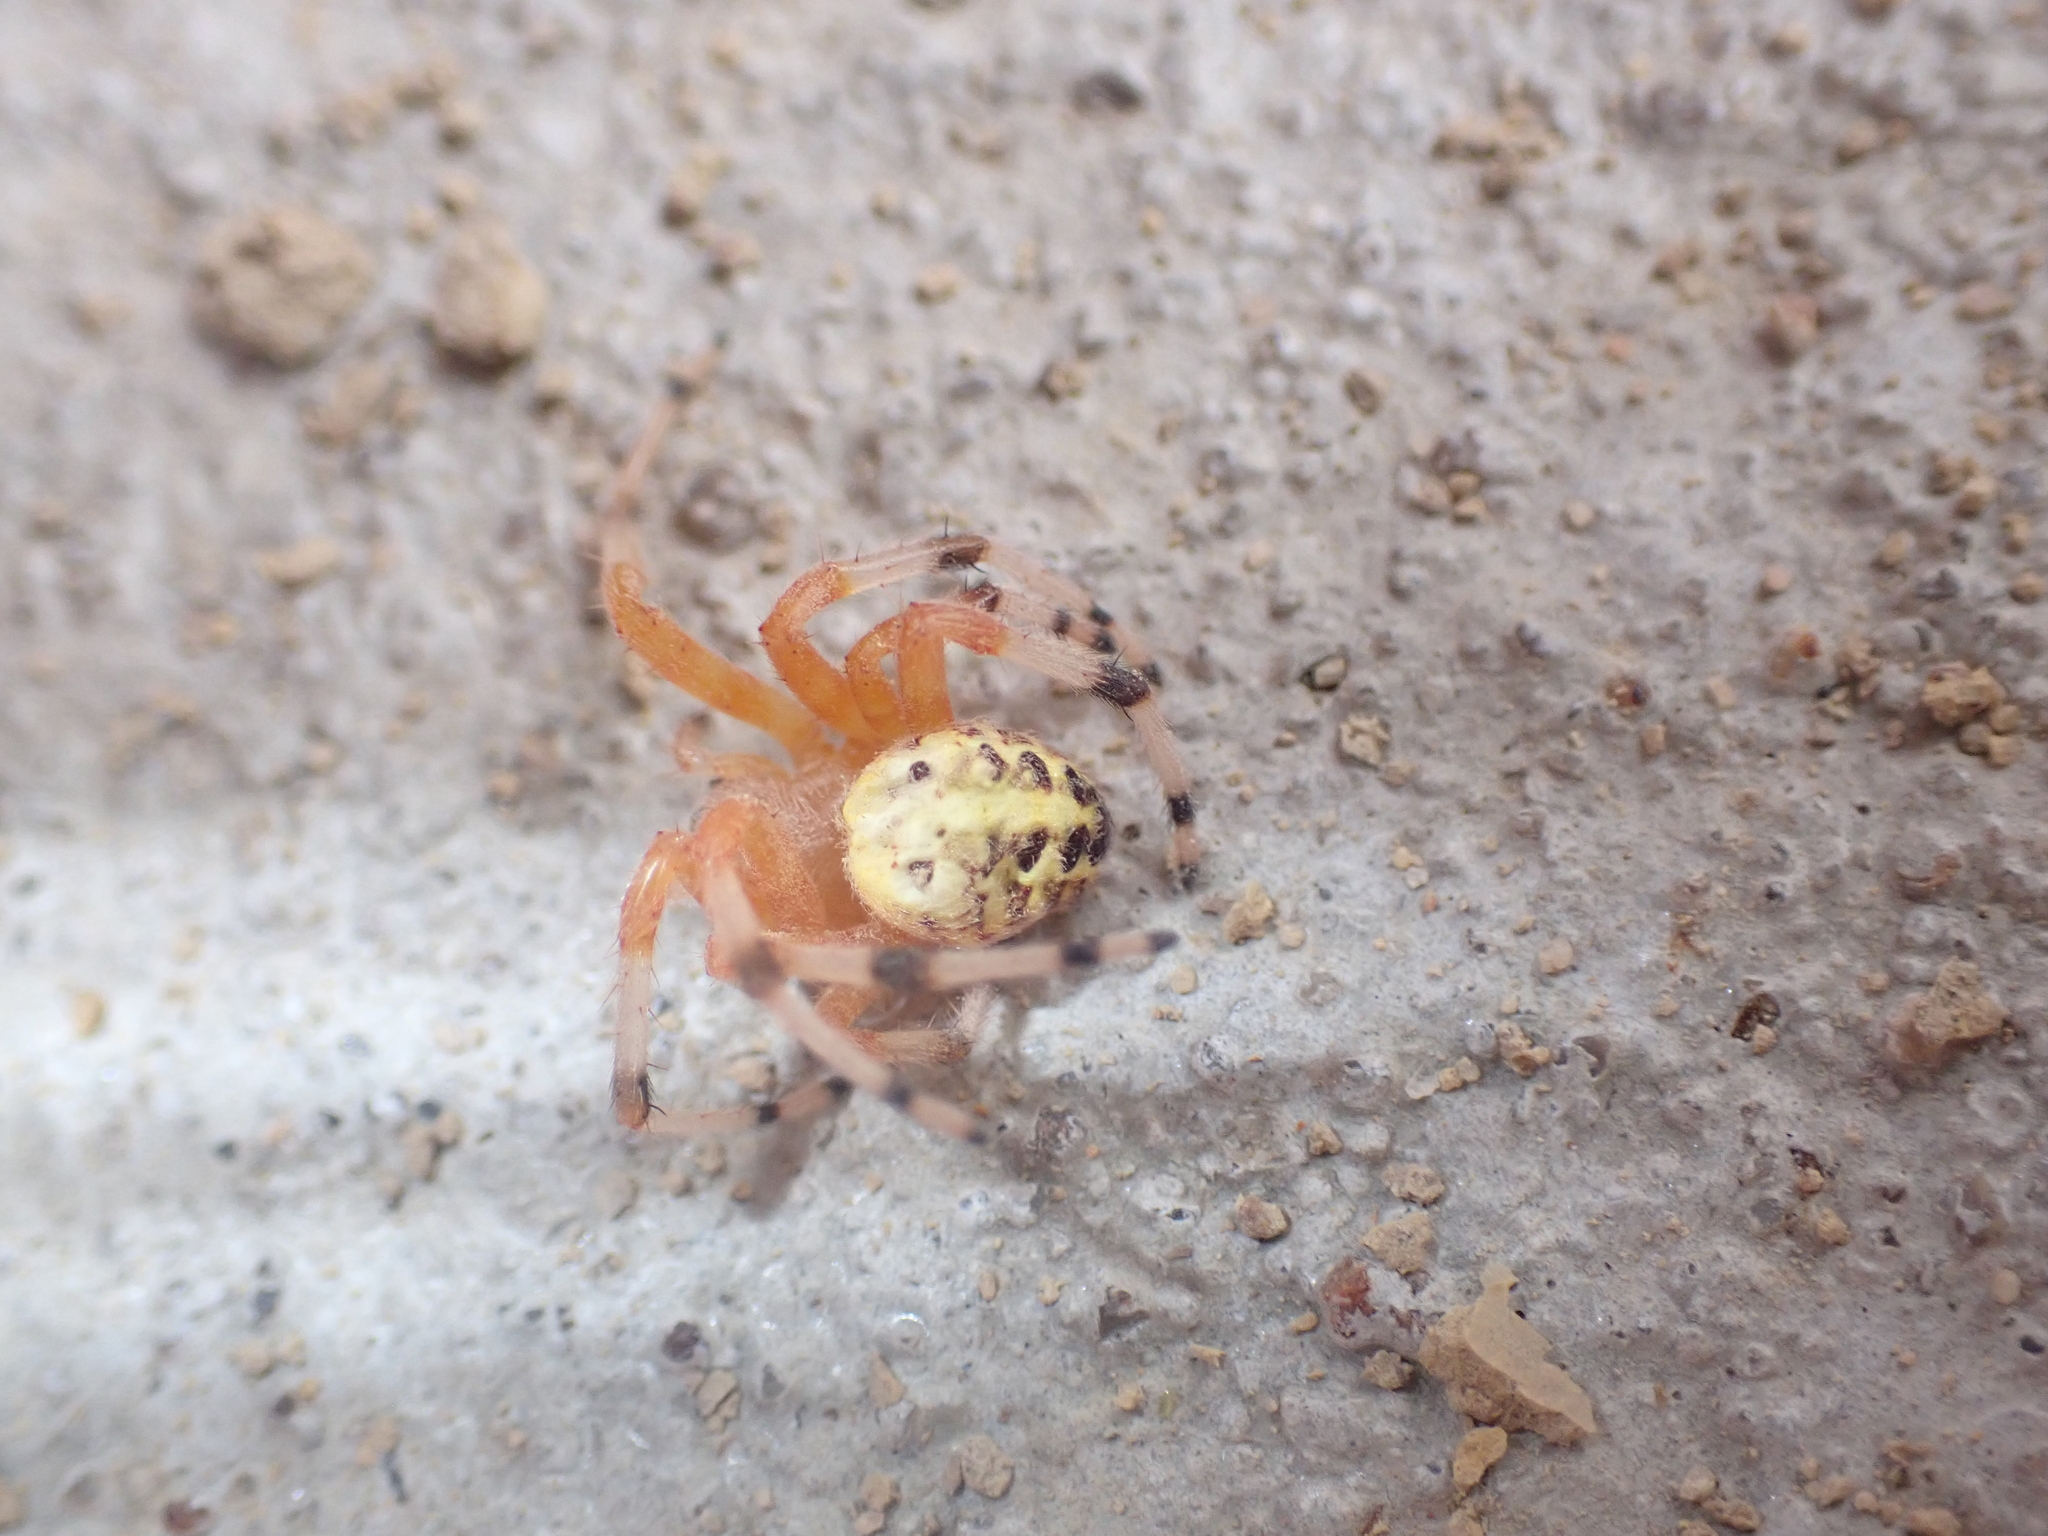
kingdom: Animalia
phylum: Arthropoda
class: Arachnida
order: Araneae
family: Araneidae
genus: Araneus
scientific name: Araneus marmoreus
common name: Marbled orbweaver
